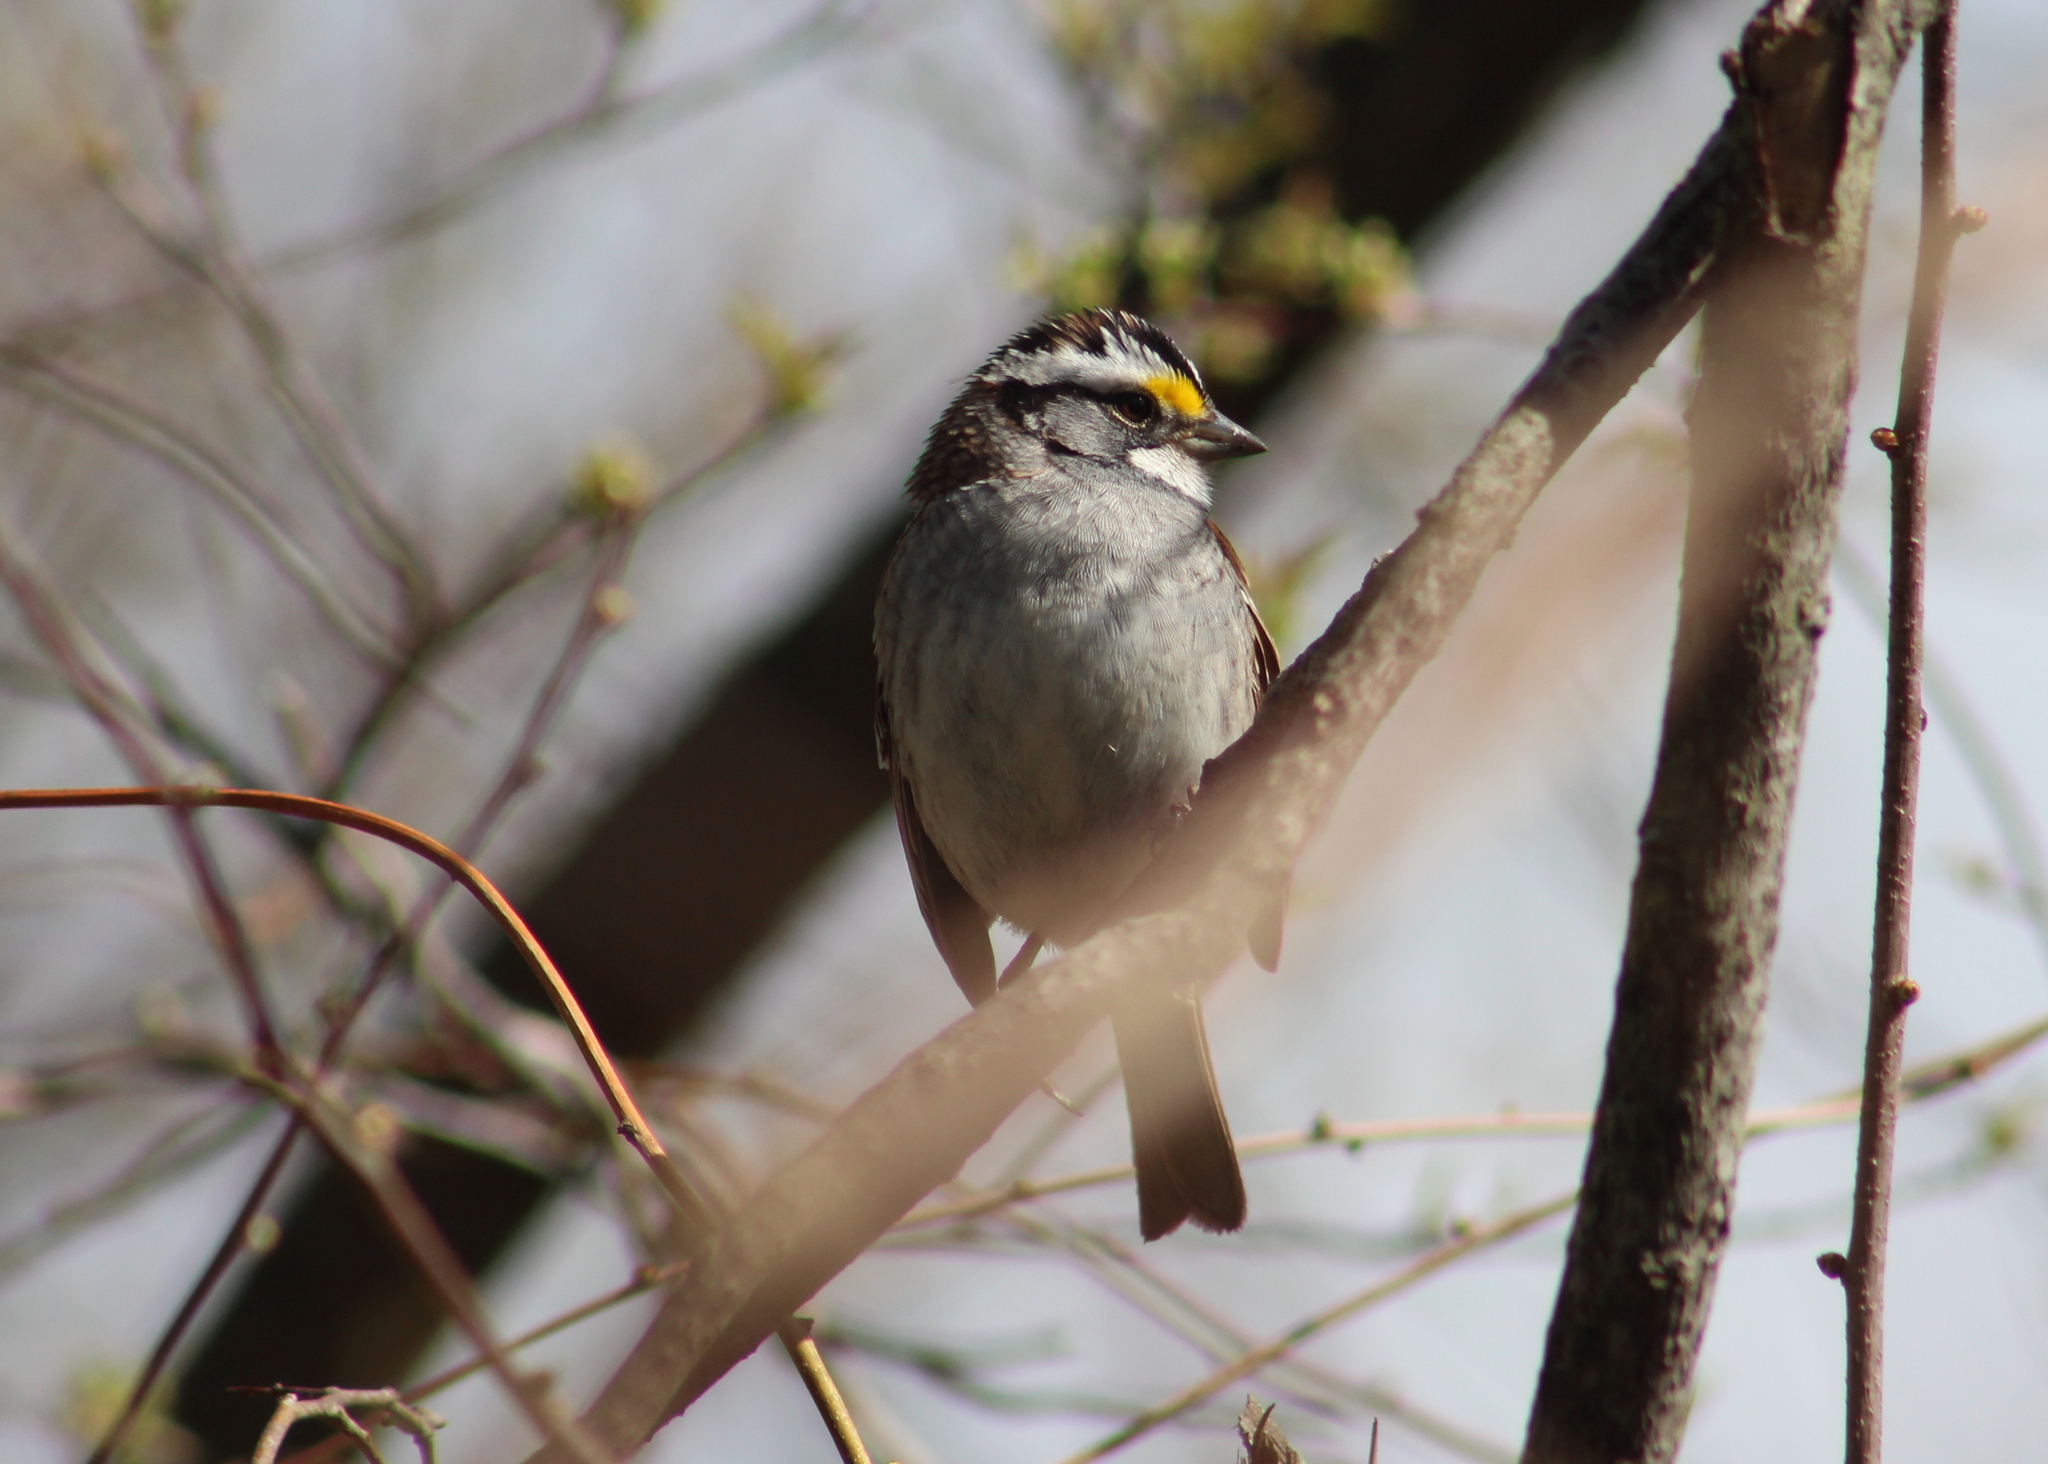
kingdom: Animalia
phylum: Chordata
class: Aves
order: Passeriformes
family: Passerellidae
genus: Zonotrichia
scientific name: Zonotrichia albicollis
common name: White-throated sparrow
